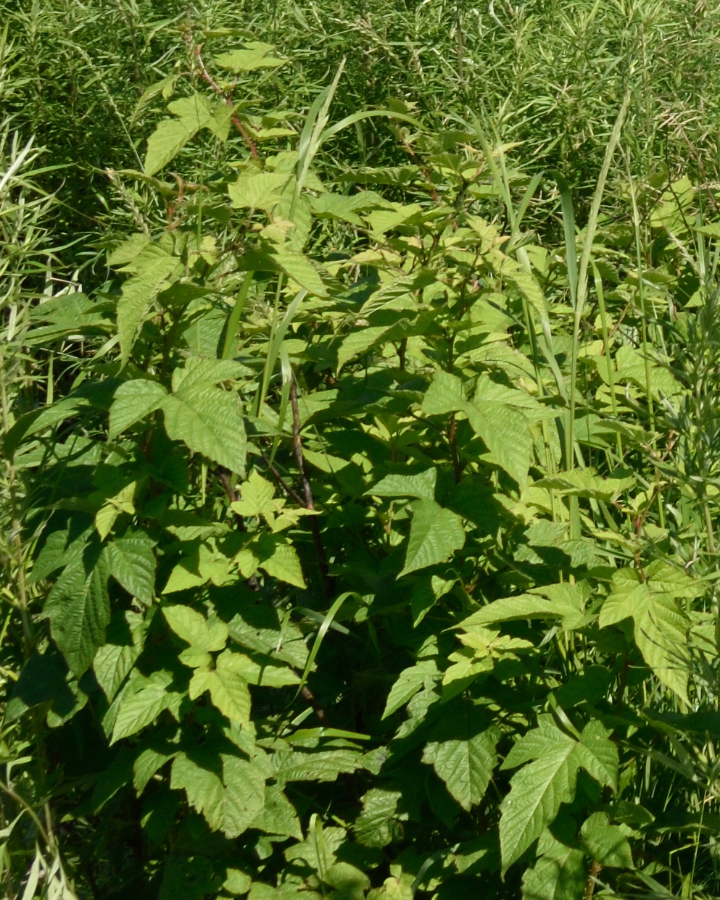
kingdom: Plantae
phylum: Tracheophyta
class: Magnoliopsida
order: Rosales
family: Rosaceae
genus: Rubus
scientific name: Rubus crataegifolius
